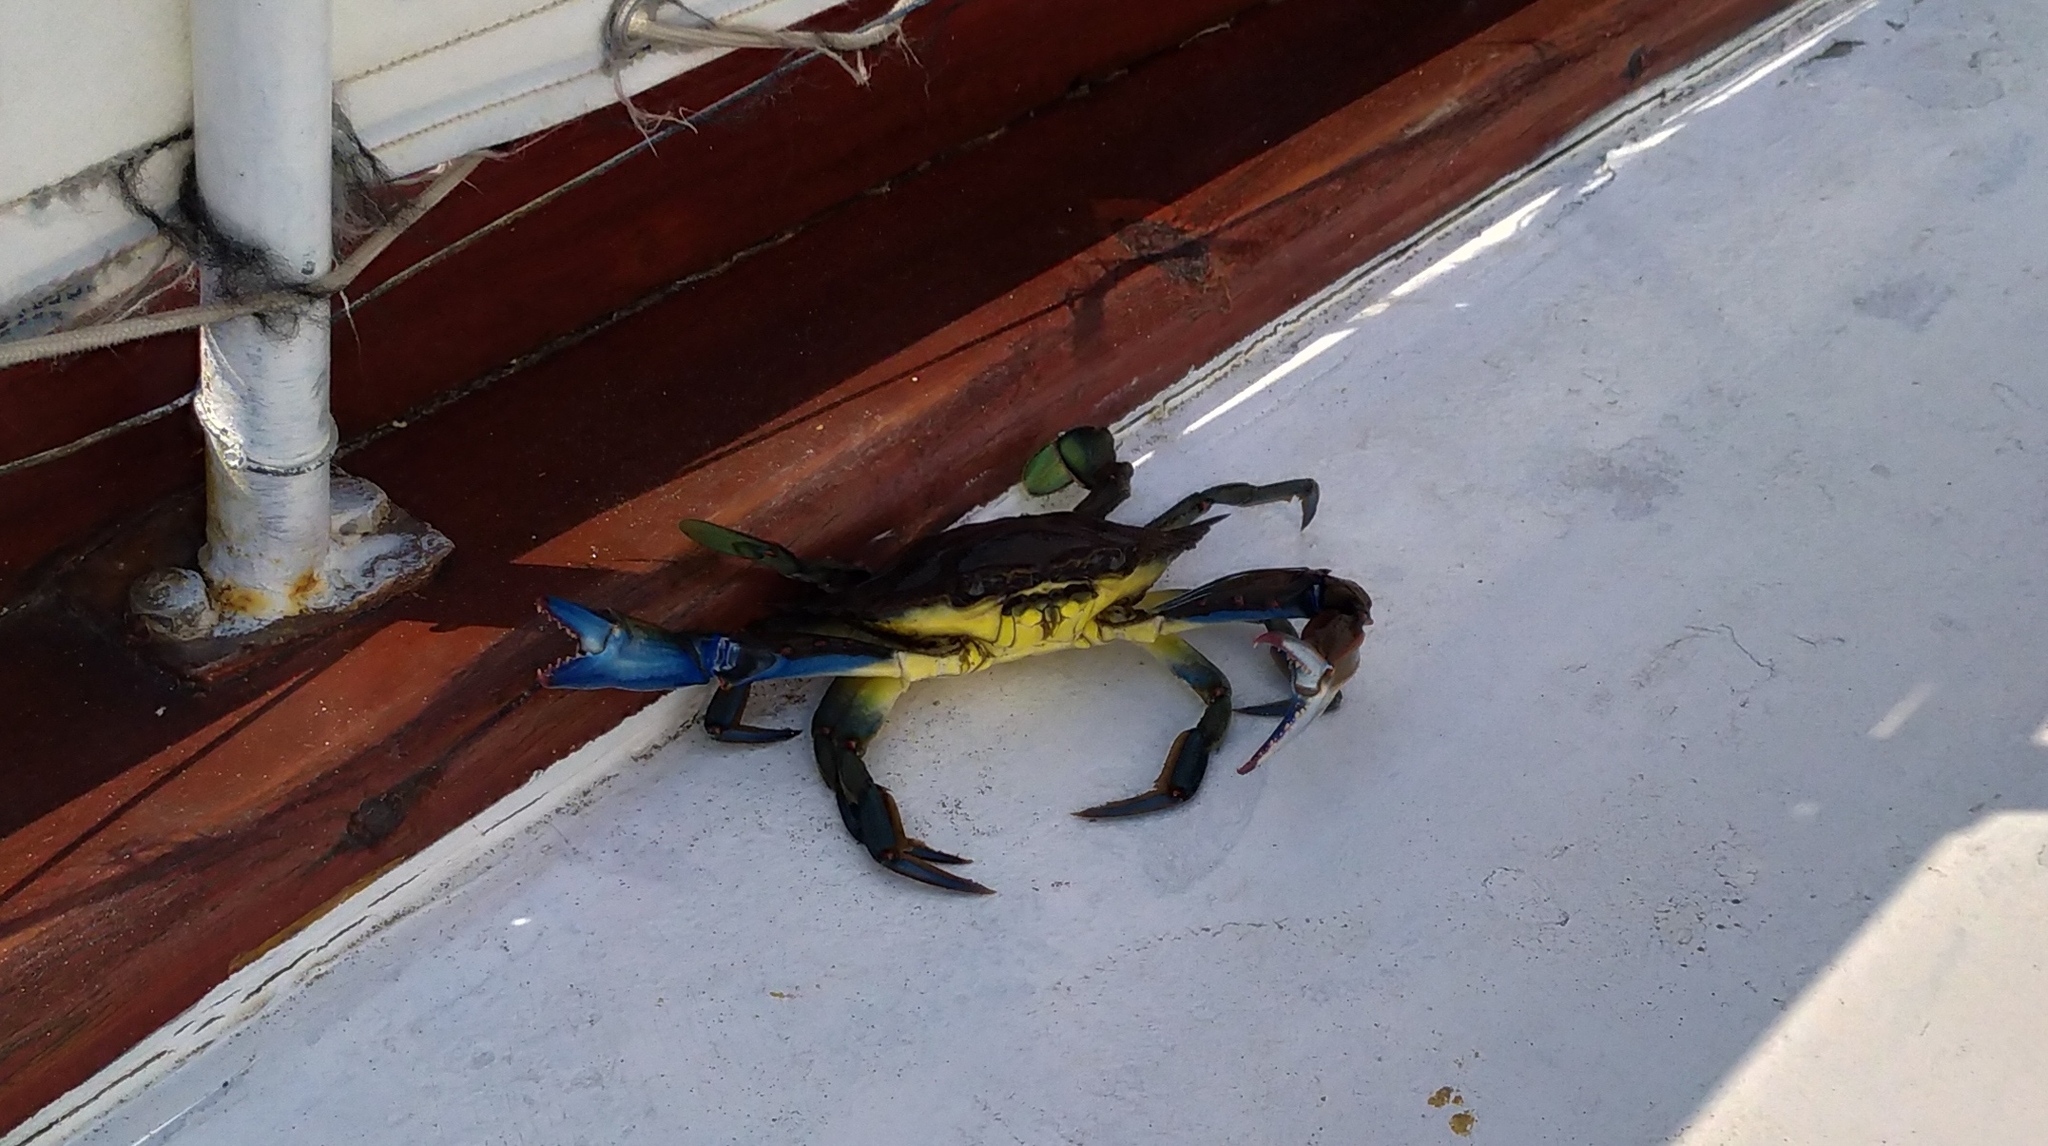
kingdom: Animalia
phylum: Arthropoda
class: Malacostraca
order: Decapoda
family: Portunidae
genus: Callinectes
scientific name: Callinectes sapidus
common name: Blue crab
